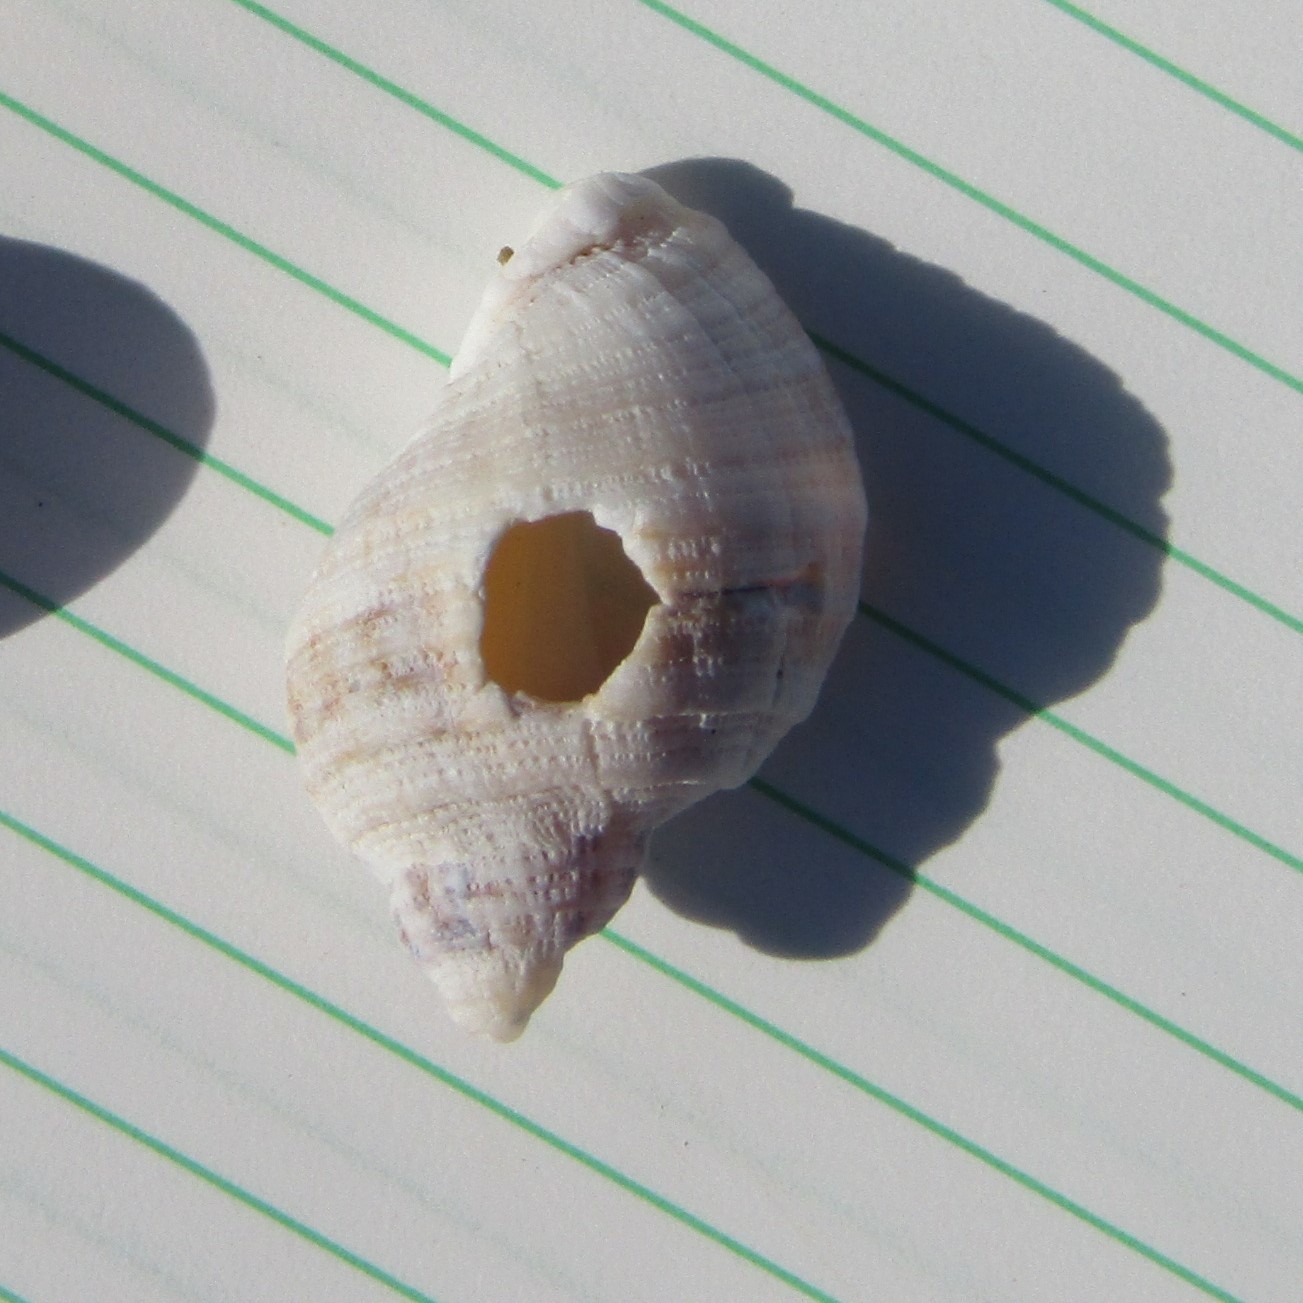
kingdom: Animalia
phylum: Mollusca
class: Gastropoda
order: Neogastropoda
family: Muricidae
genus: Dicathais
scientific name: Dicathais orbita
